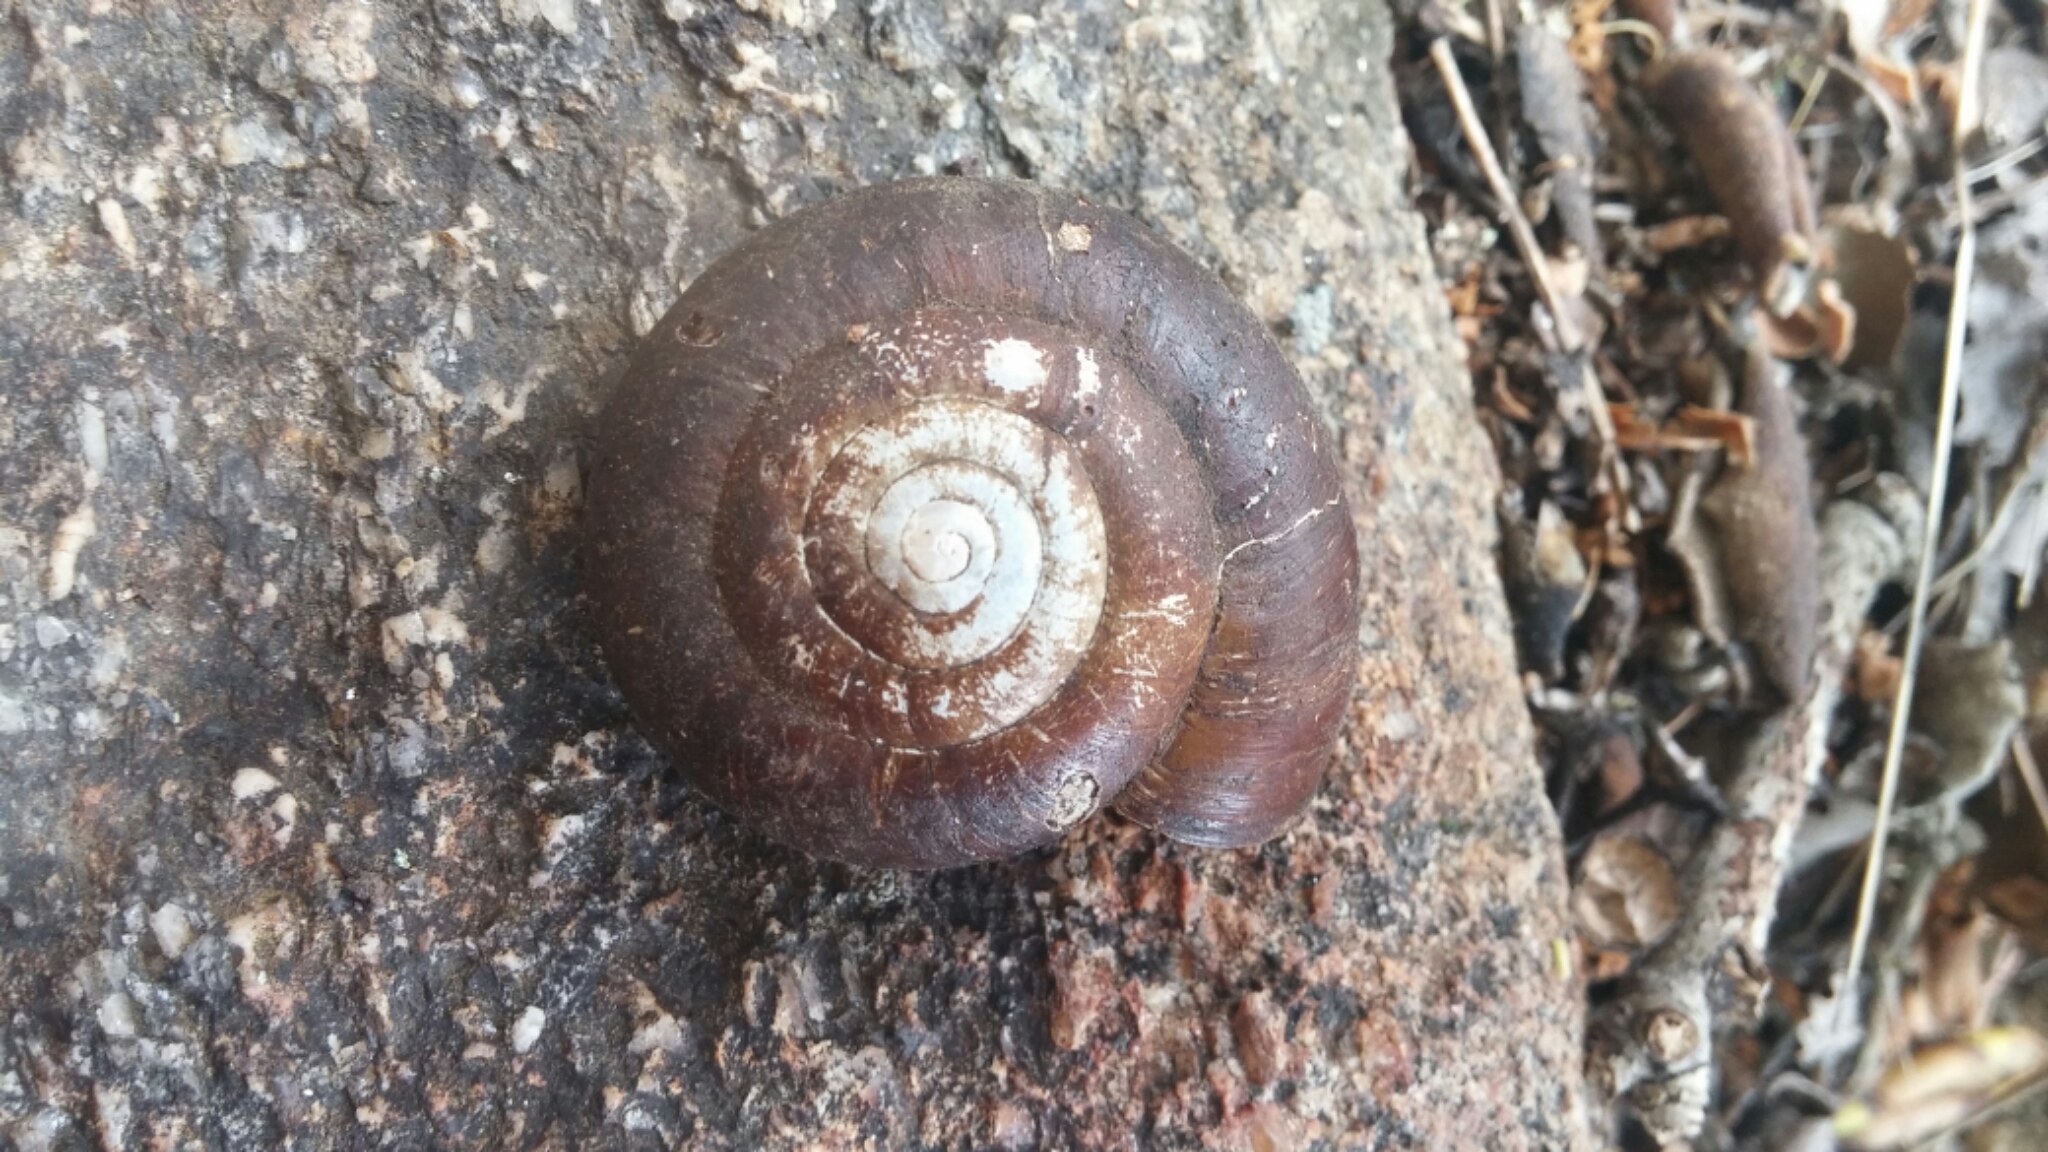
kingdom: Animalia
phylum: Mollusca
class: Gastropoda
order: Stylommatophora
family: Megomphicidae
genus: Glyptostoma
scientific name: Glyptostoma newberryanum
